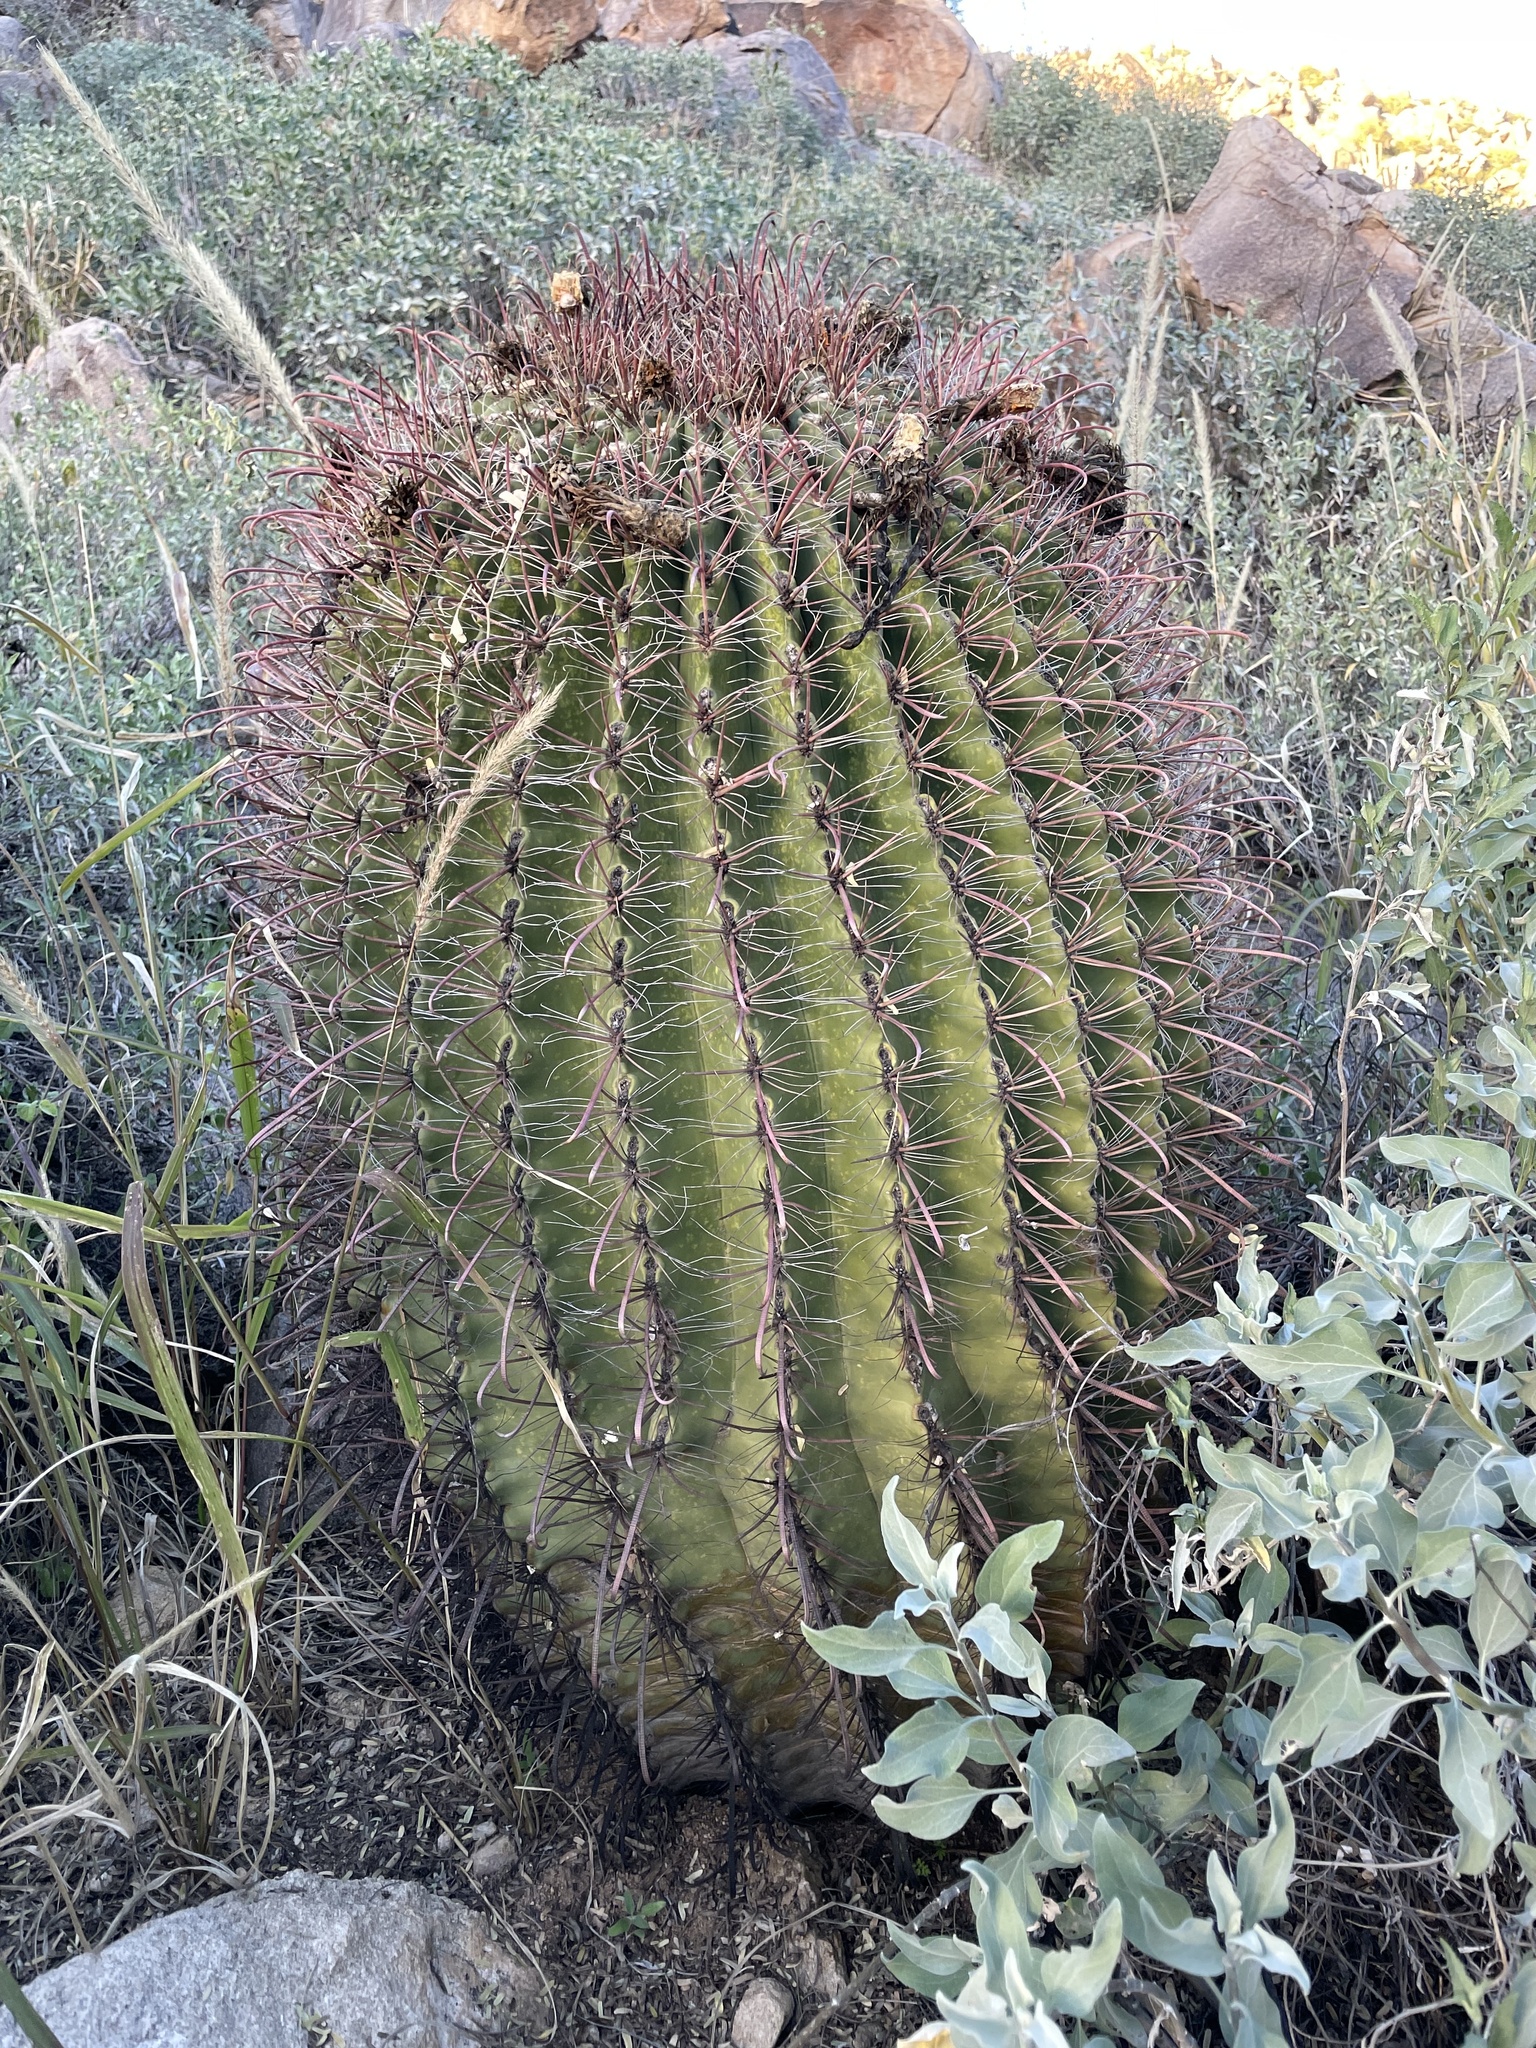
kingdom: Plantae
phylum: Tracheophyta
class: Magnoliopsida
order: Caryophyllales
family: Cactaceae
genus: Ferocactus
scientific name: Ferocactus wislizeni
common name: Candy barrel cactus
